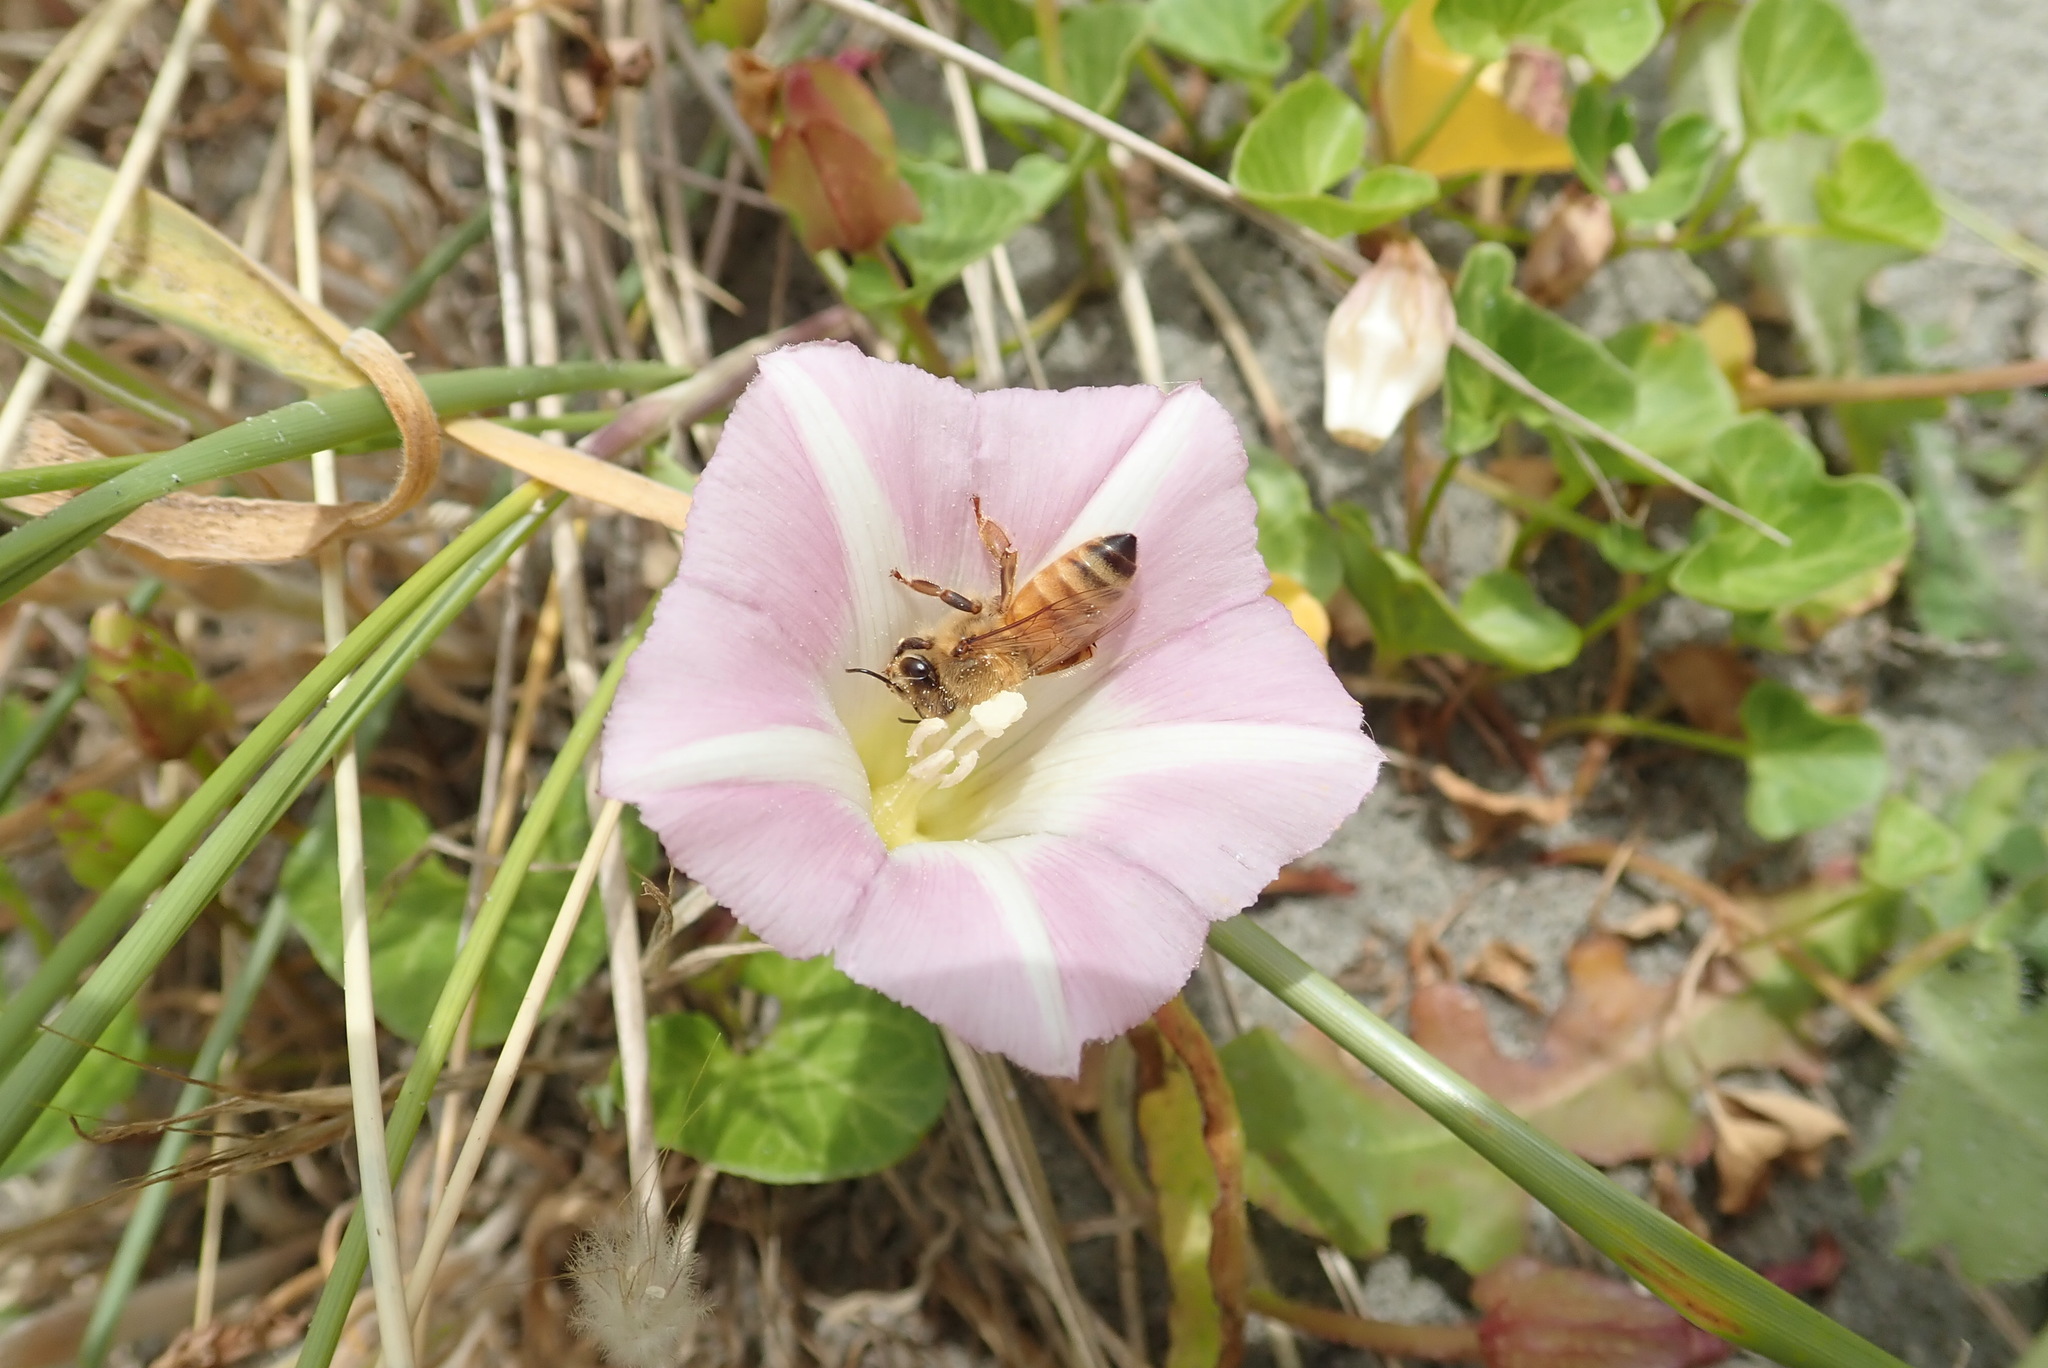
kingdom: Animalia
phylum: Arthropoda
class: Insecta
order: Hymenoptera
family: Apidae
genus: Apis
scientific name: Apis mellifera
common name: Honey bee
